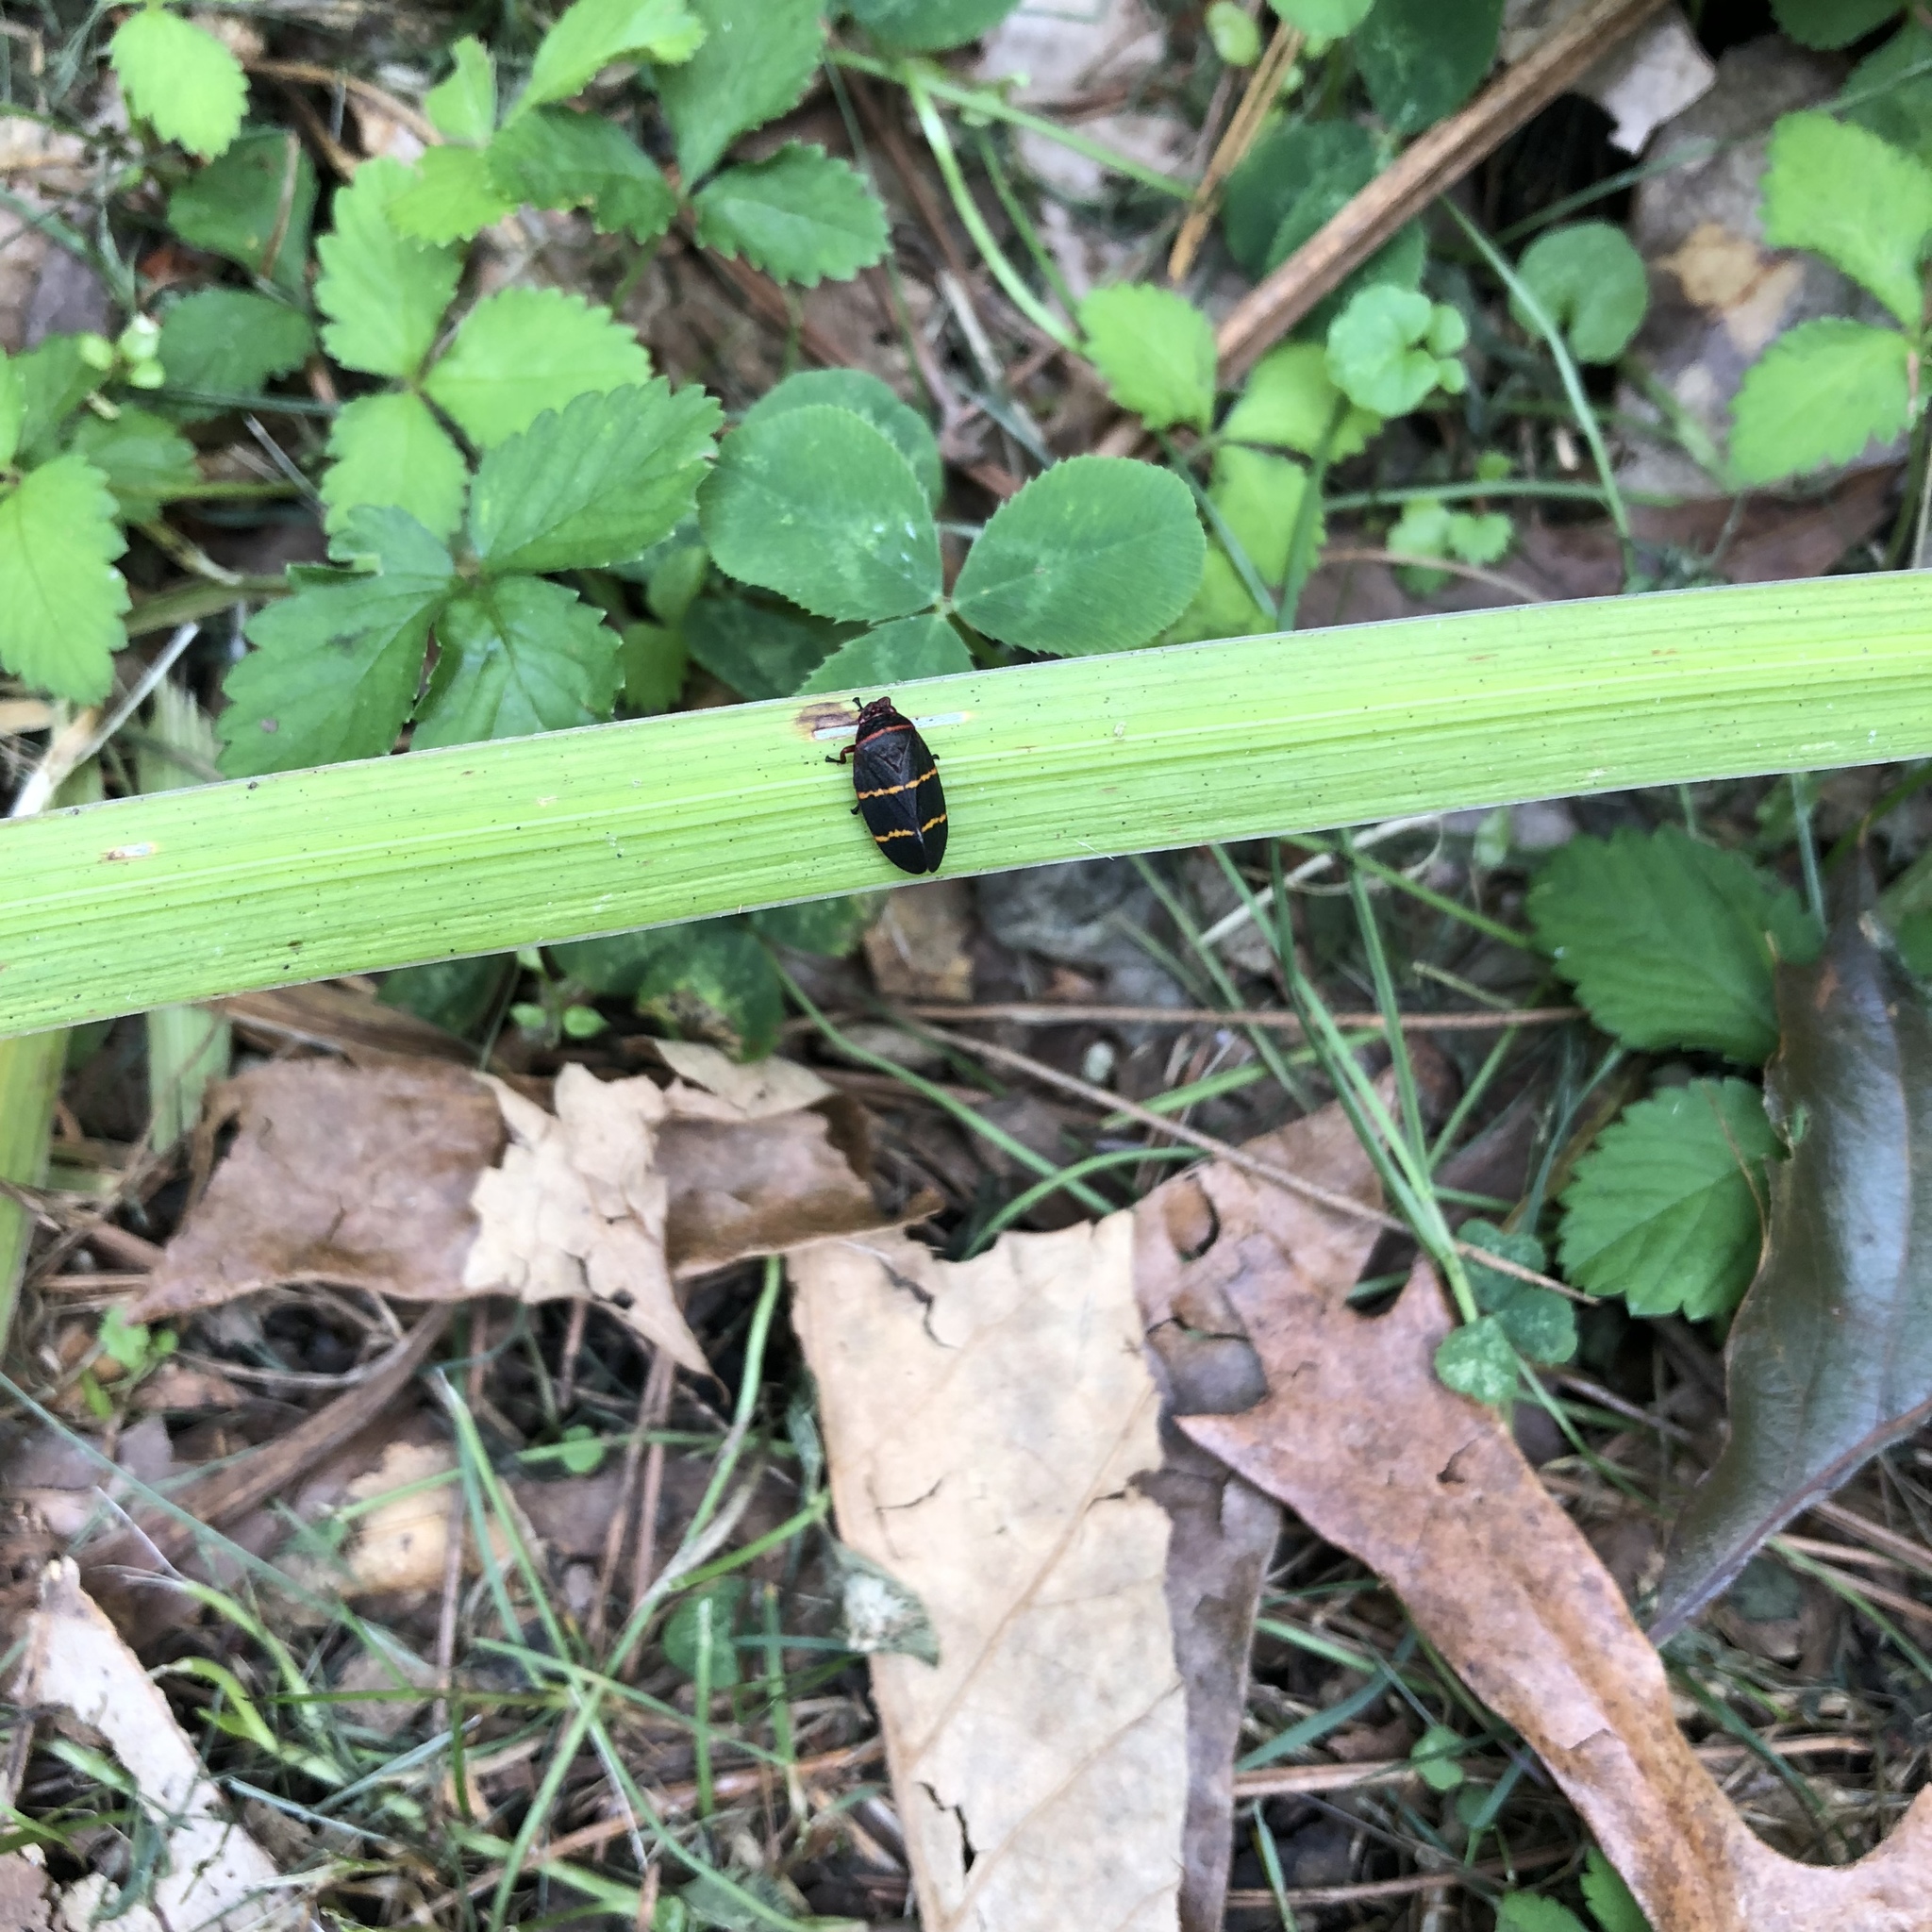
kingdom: Animalia
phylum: Arthropoda
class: Insecta
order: Hemiptera
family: Cercopidae
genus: Prosapia
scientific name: Prosapia bicincta
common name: Twolined spittlebug
